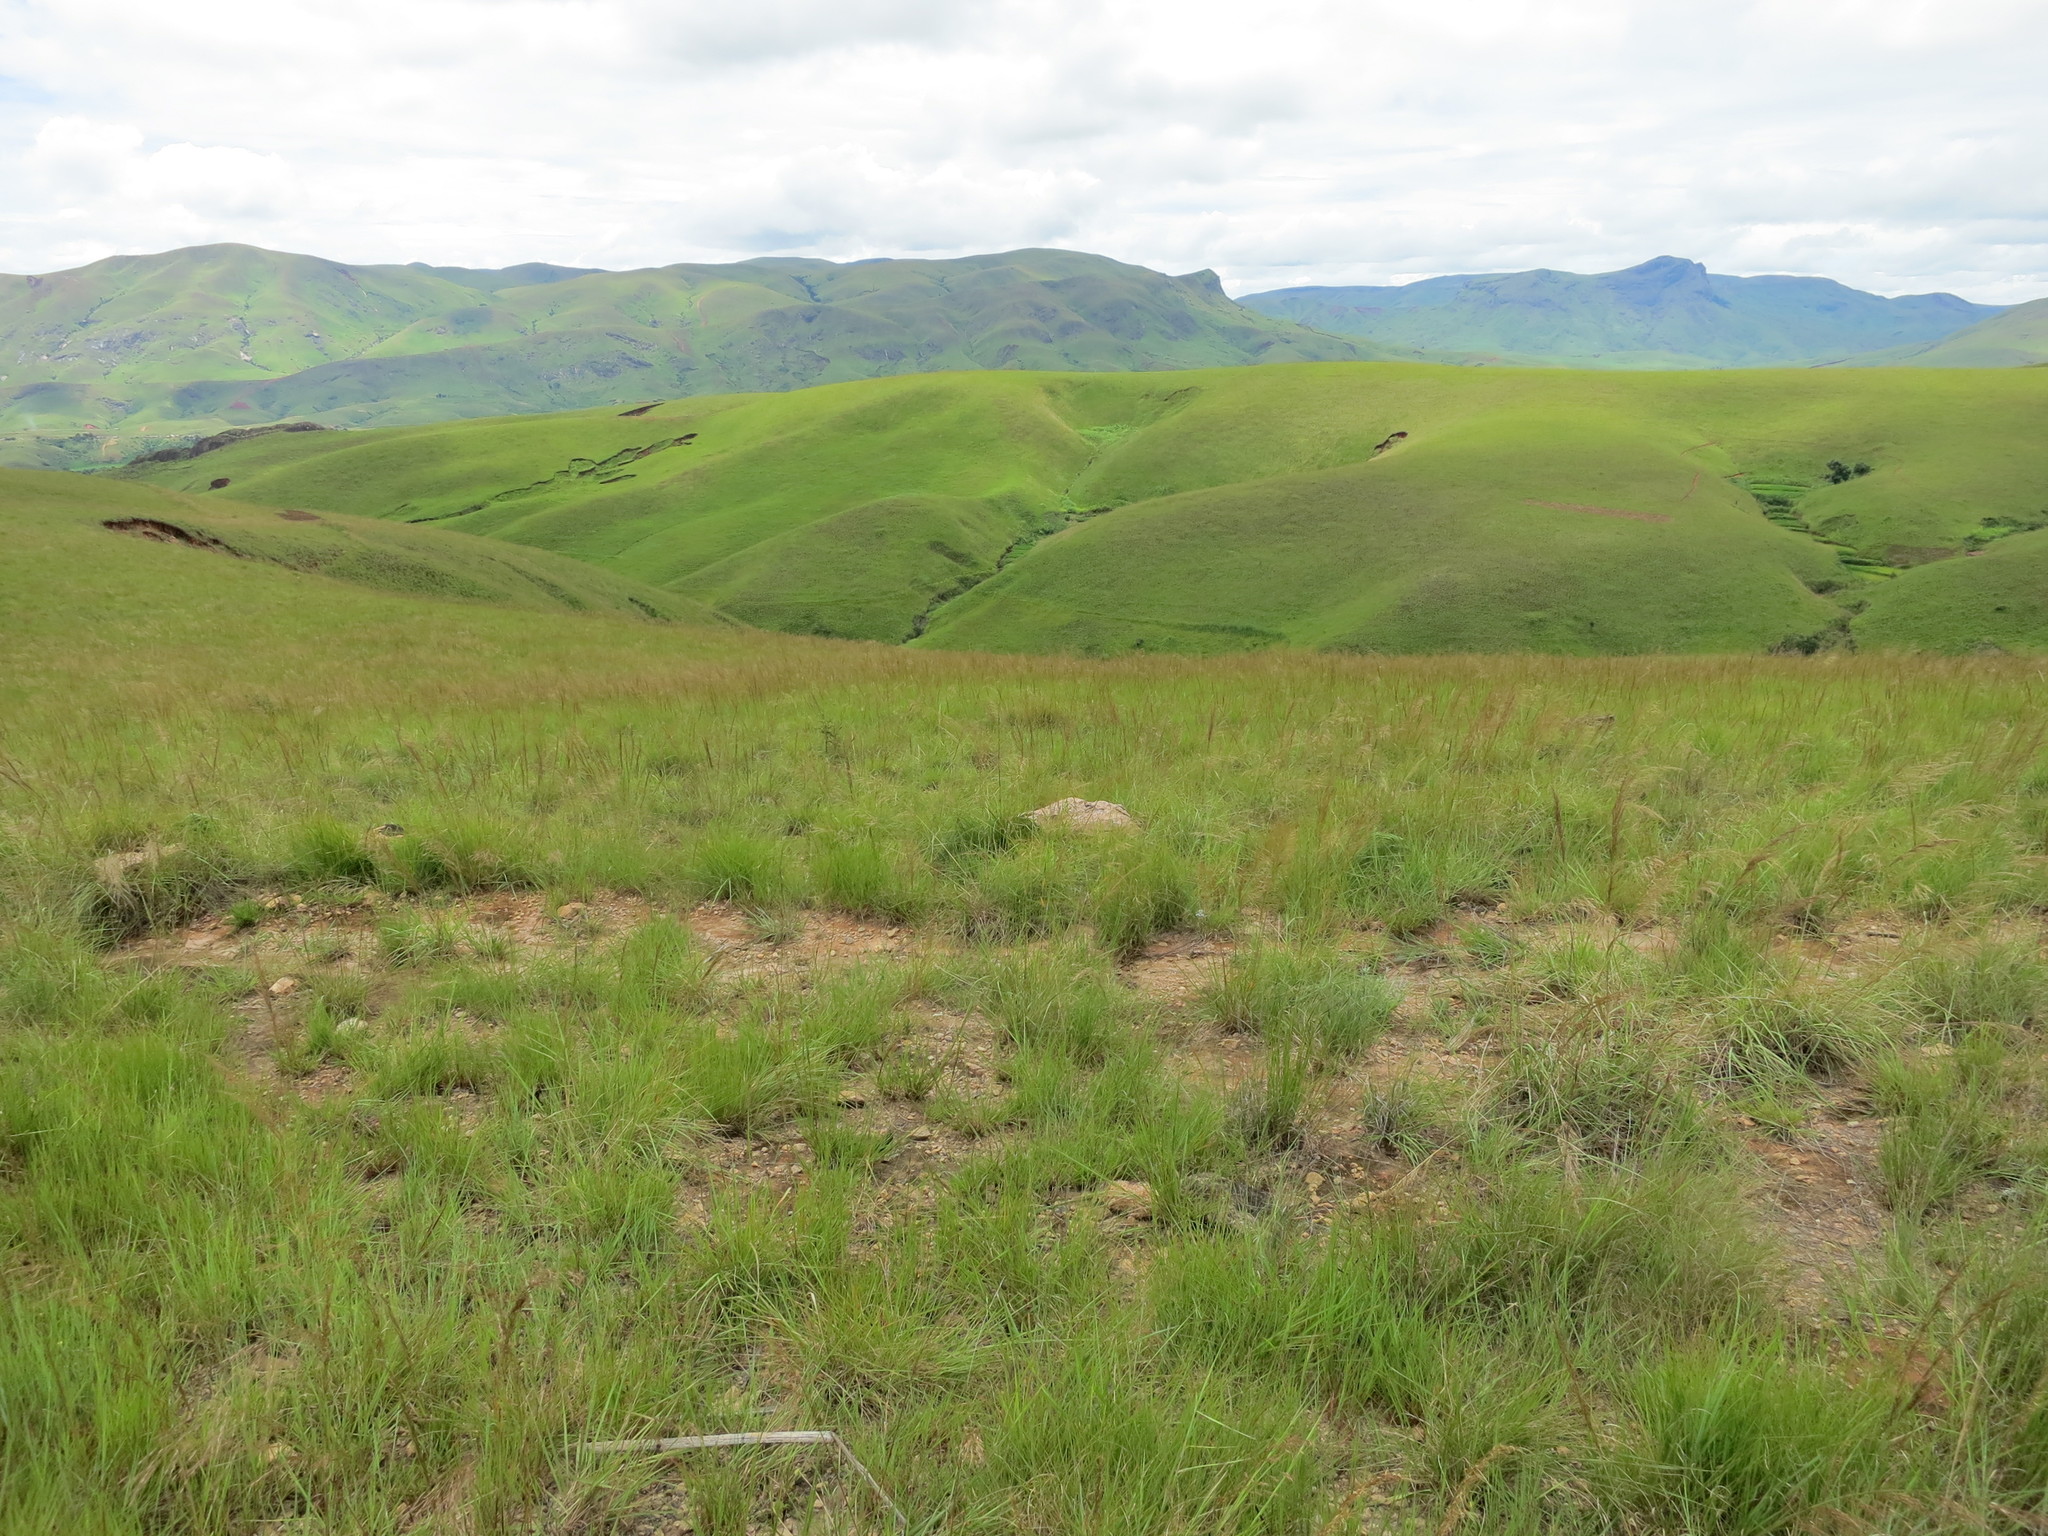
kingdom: Plantae
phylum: Tracheophyta
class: Liliopsida
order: Poales
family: Poaceae
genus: Loudetia
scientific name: Loudetia simplex
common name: Common russet grass
